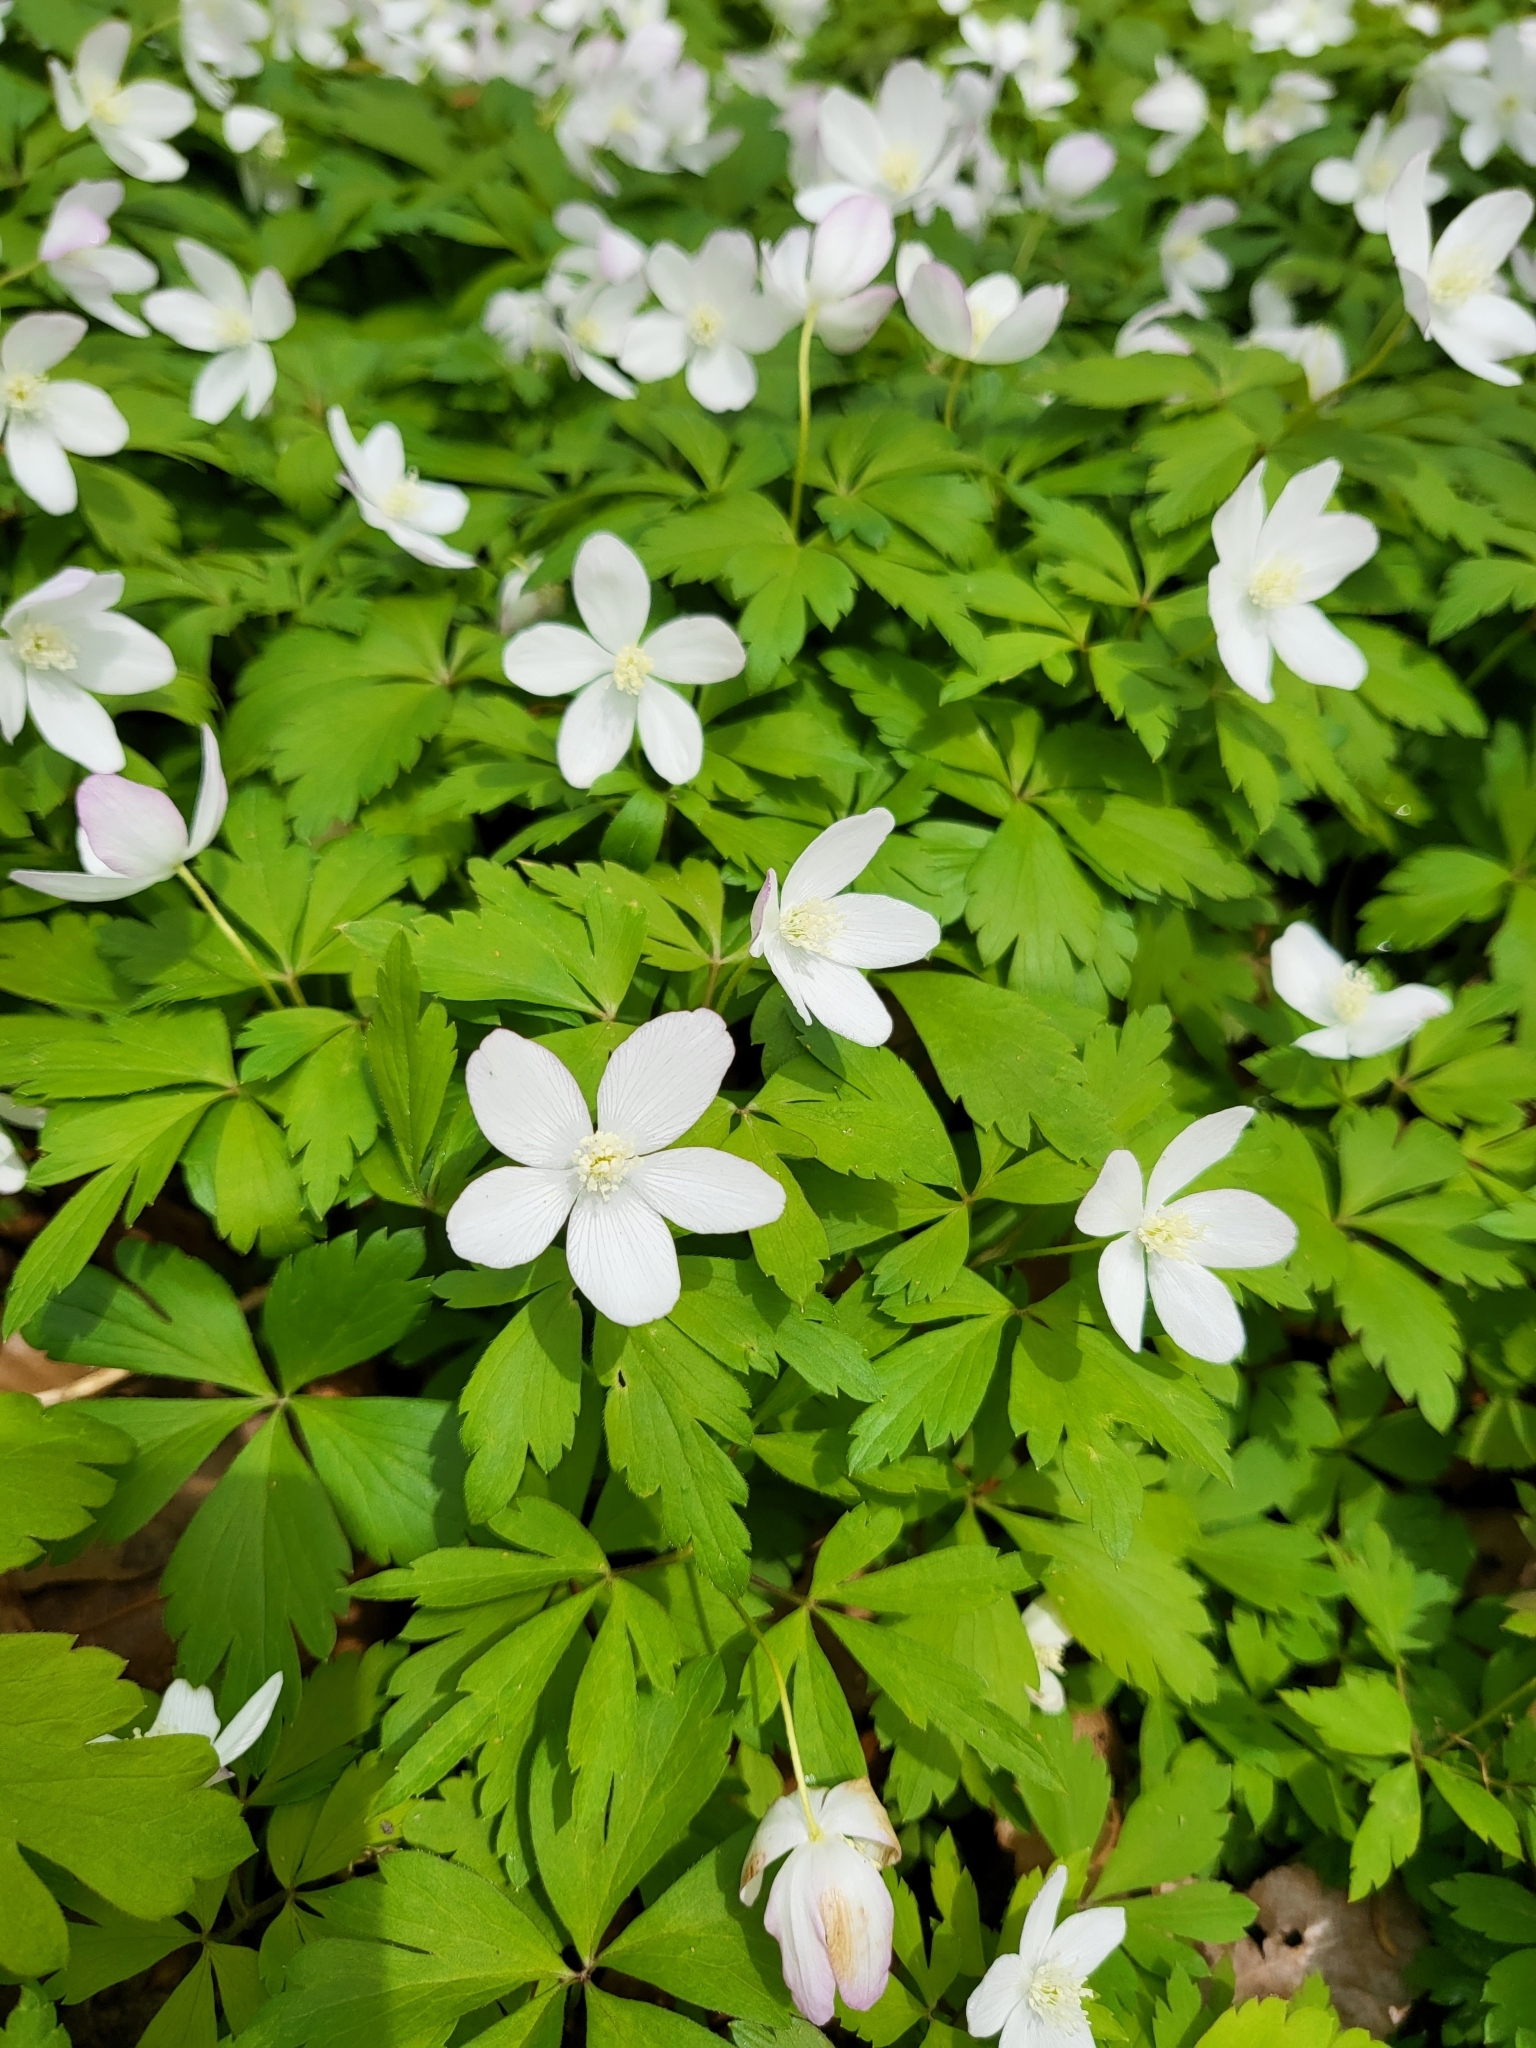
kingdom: Plantae
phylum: Tracheophyta
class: Magnoliopsida
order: Ranunculales
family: Ranunculaceae
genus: Anemone
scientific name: Anemone quinquefolia
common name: Wood anemone
